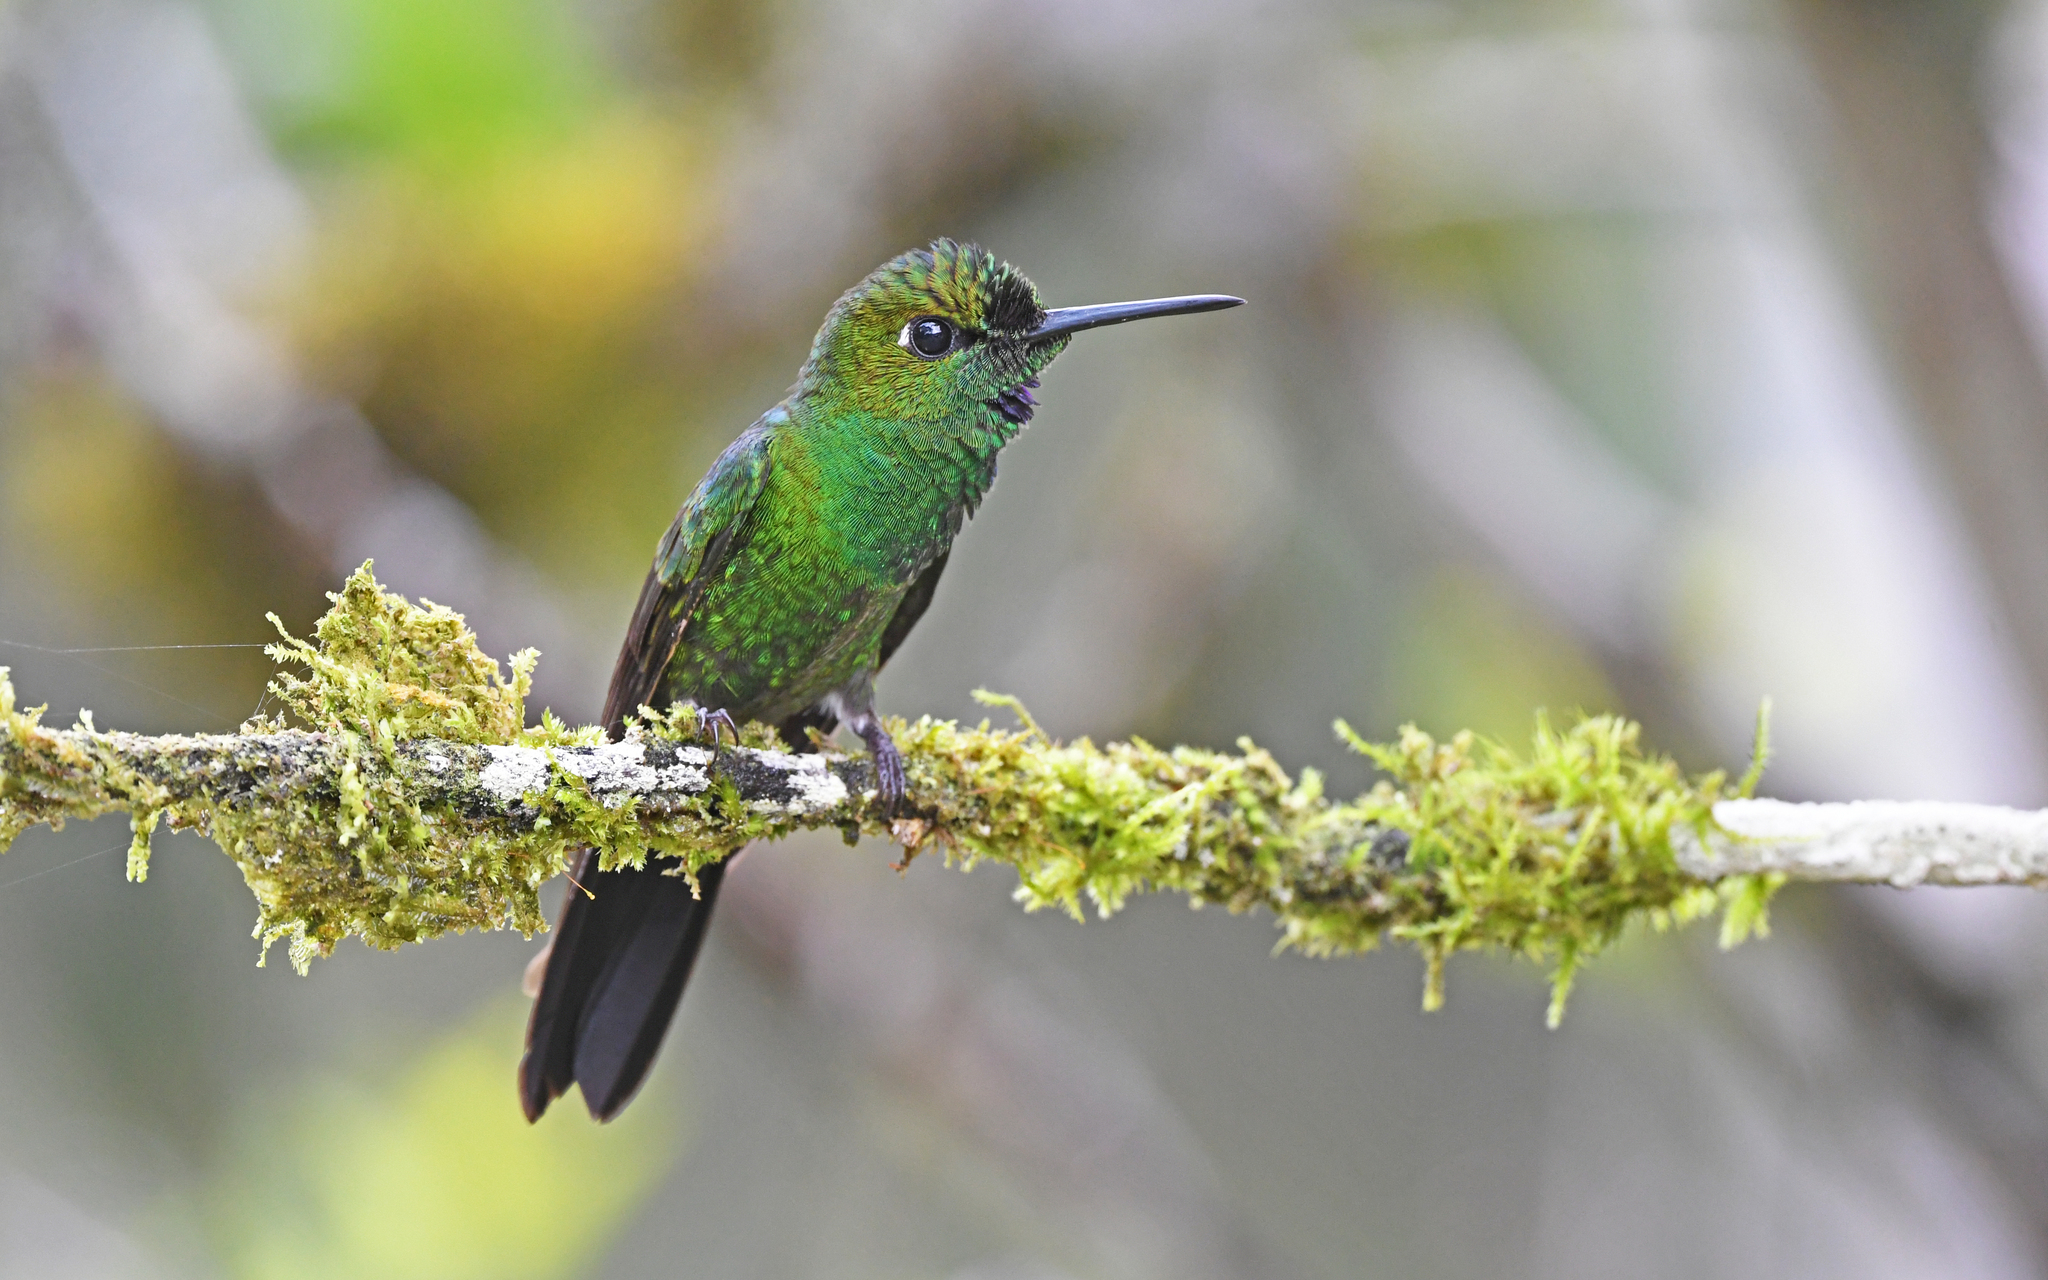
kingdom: Animalia
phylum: Chordata
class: Aves
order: Apodiformes
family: Trochilidae
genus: Heliodoxa
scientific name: Heliodoxa jacula
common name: Green-crowned brilliant
